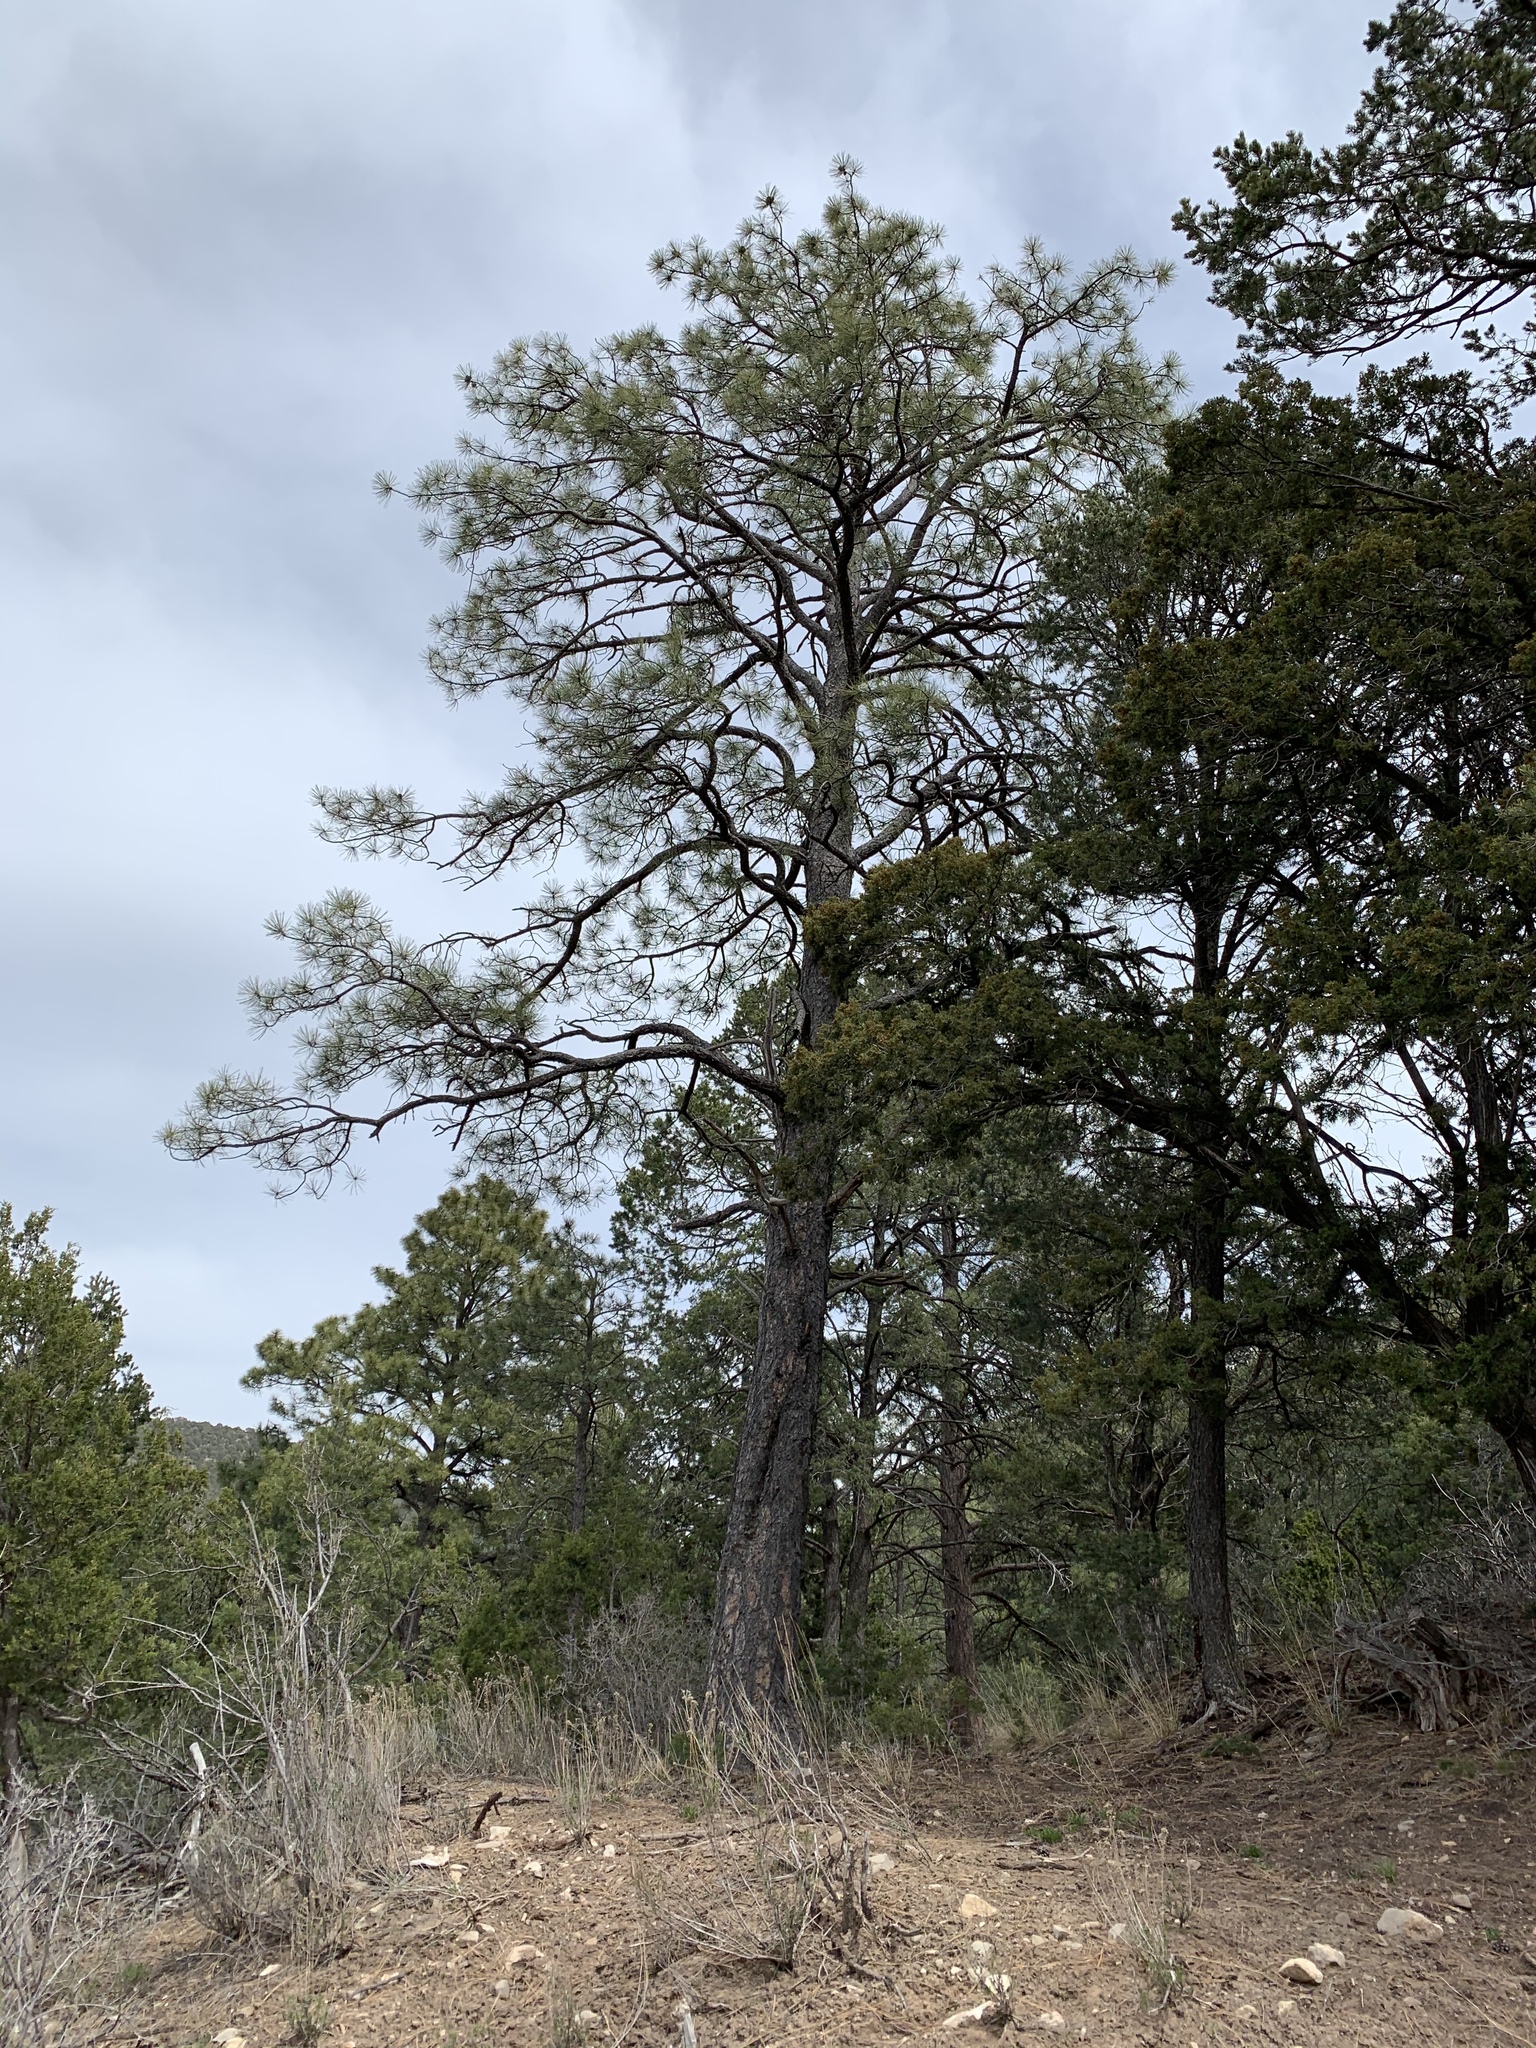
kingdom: Plantae
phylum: Tracheophyta
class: Pinopsida
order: Pinales
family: Pinaceae
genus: Pinus
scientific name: Pinus ponderosa
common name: Western yellow-pine
